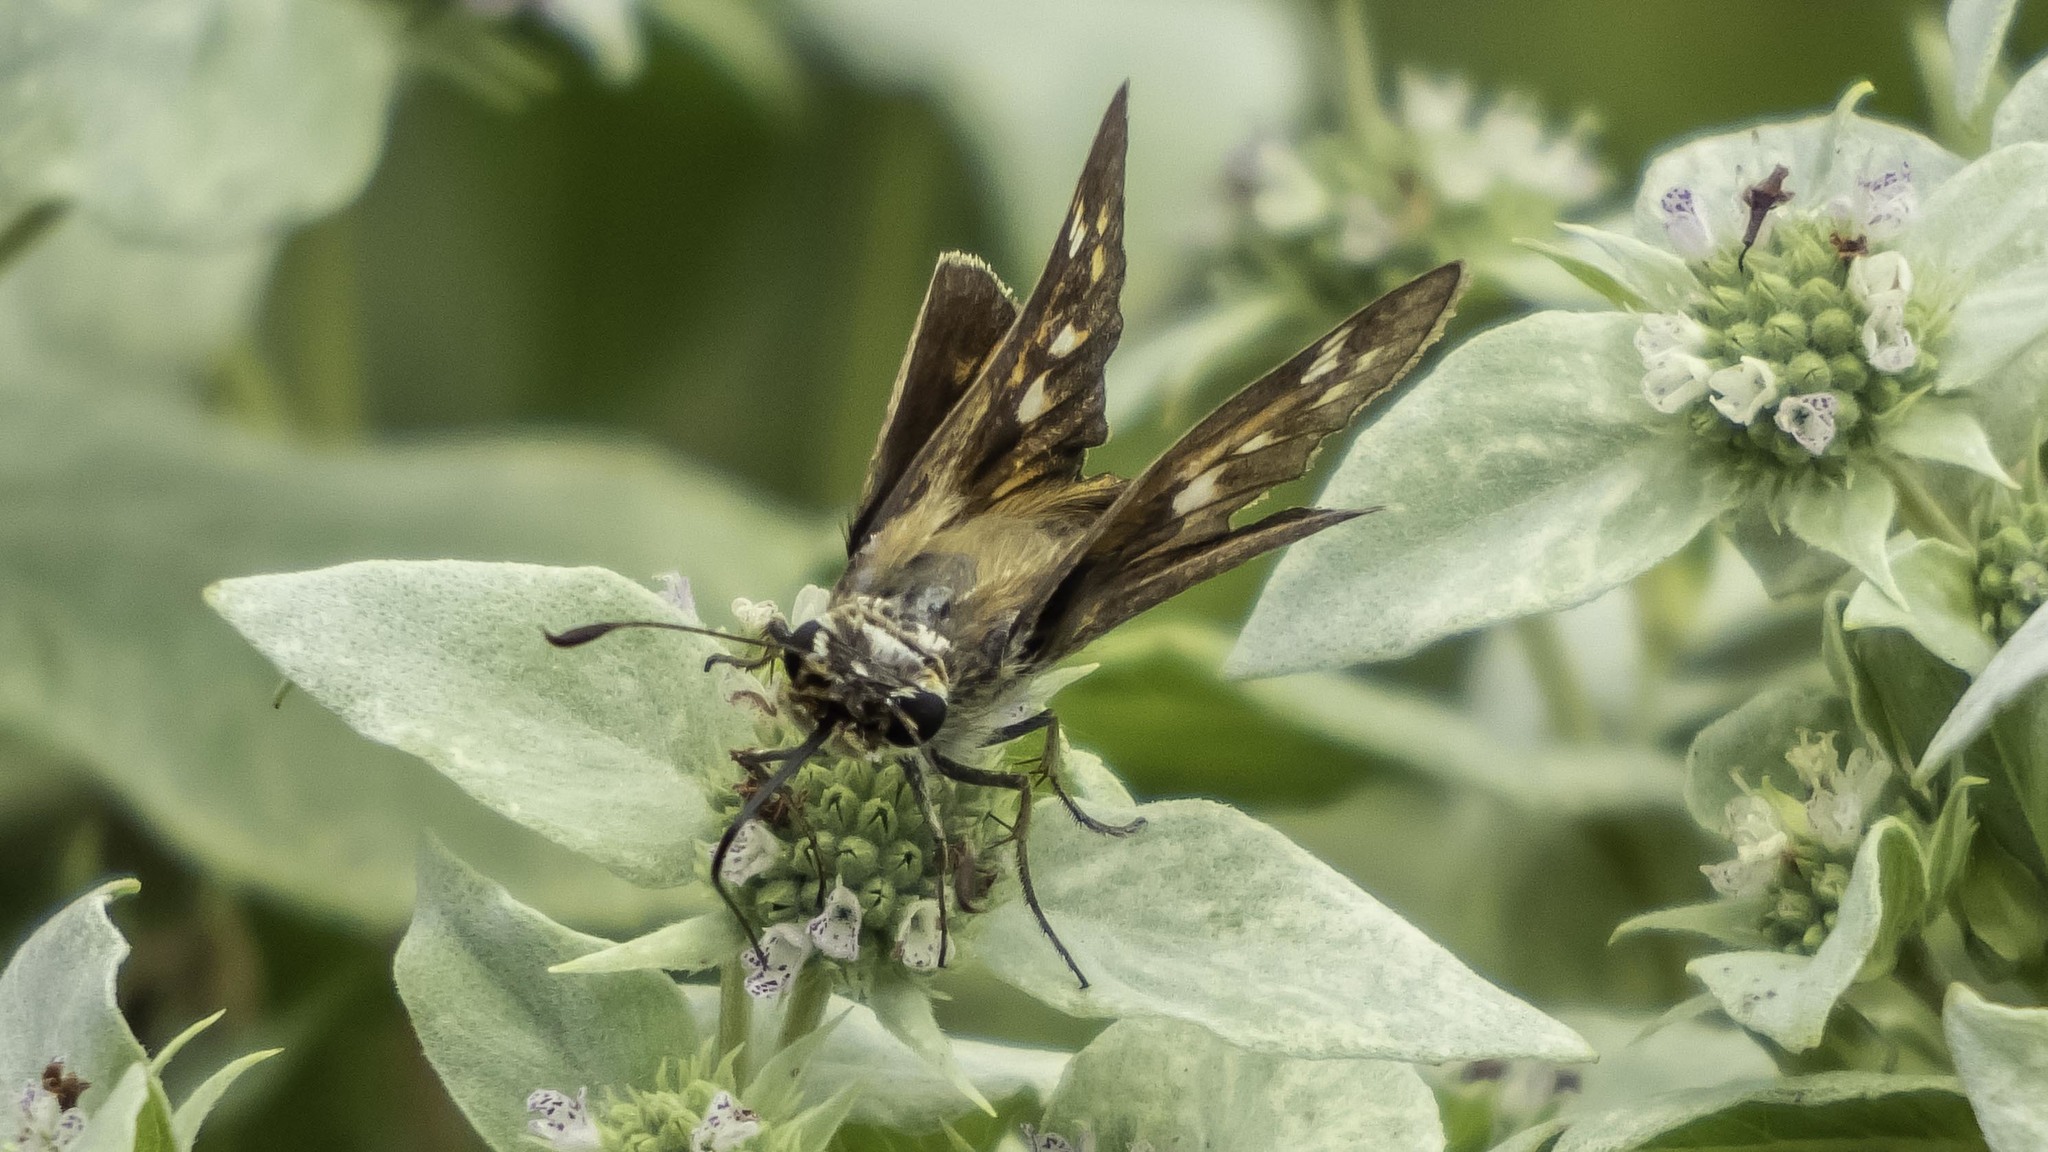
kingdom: Animalia
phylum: Arthropoda
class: Insecta
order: Lepidoptera
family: Hesperiidae
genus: Atalopedes
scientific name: Atalopedes
